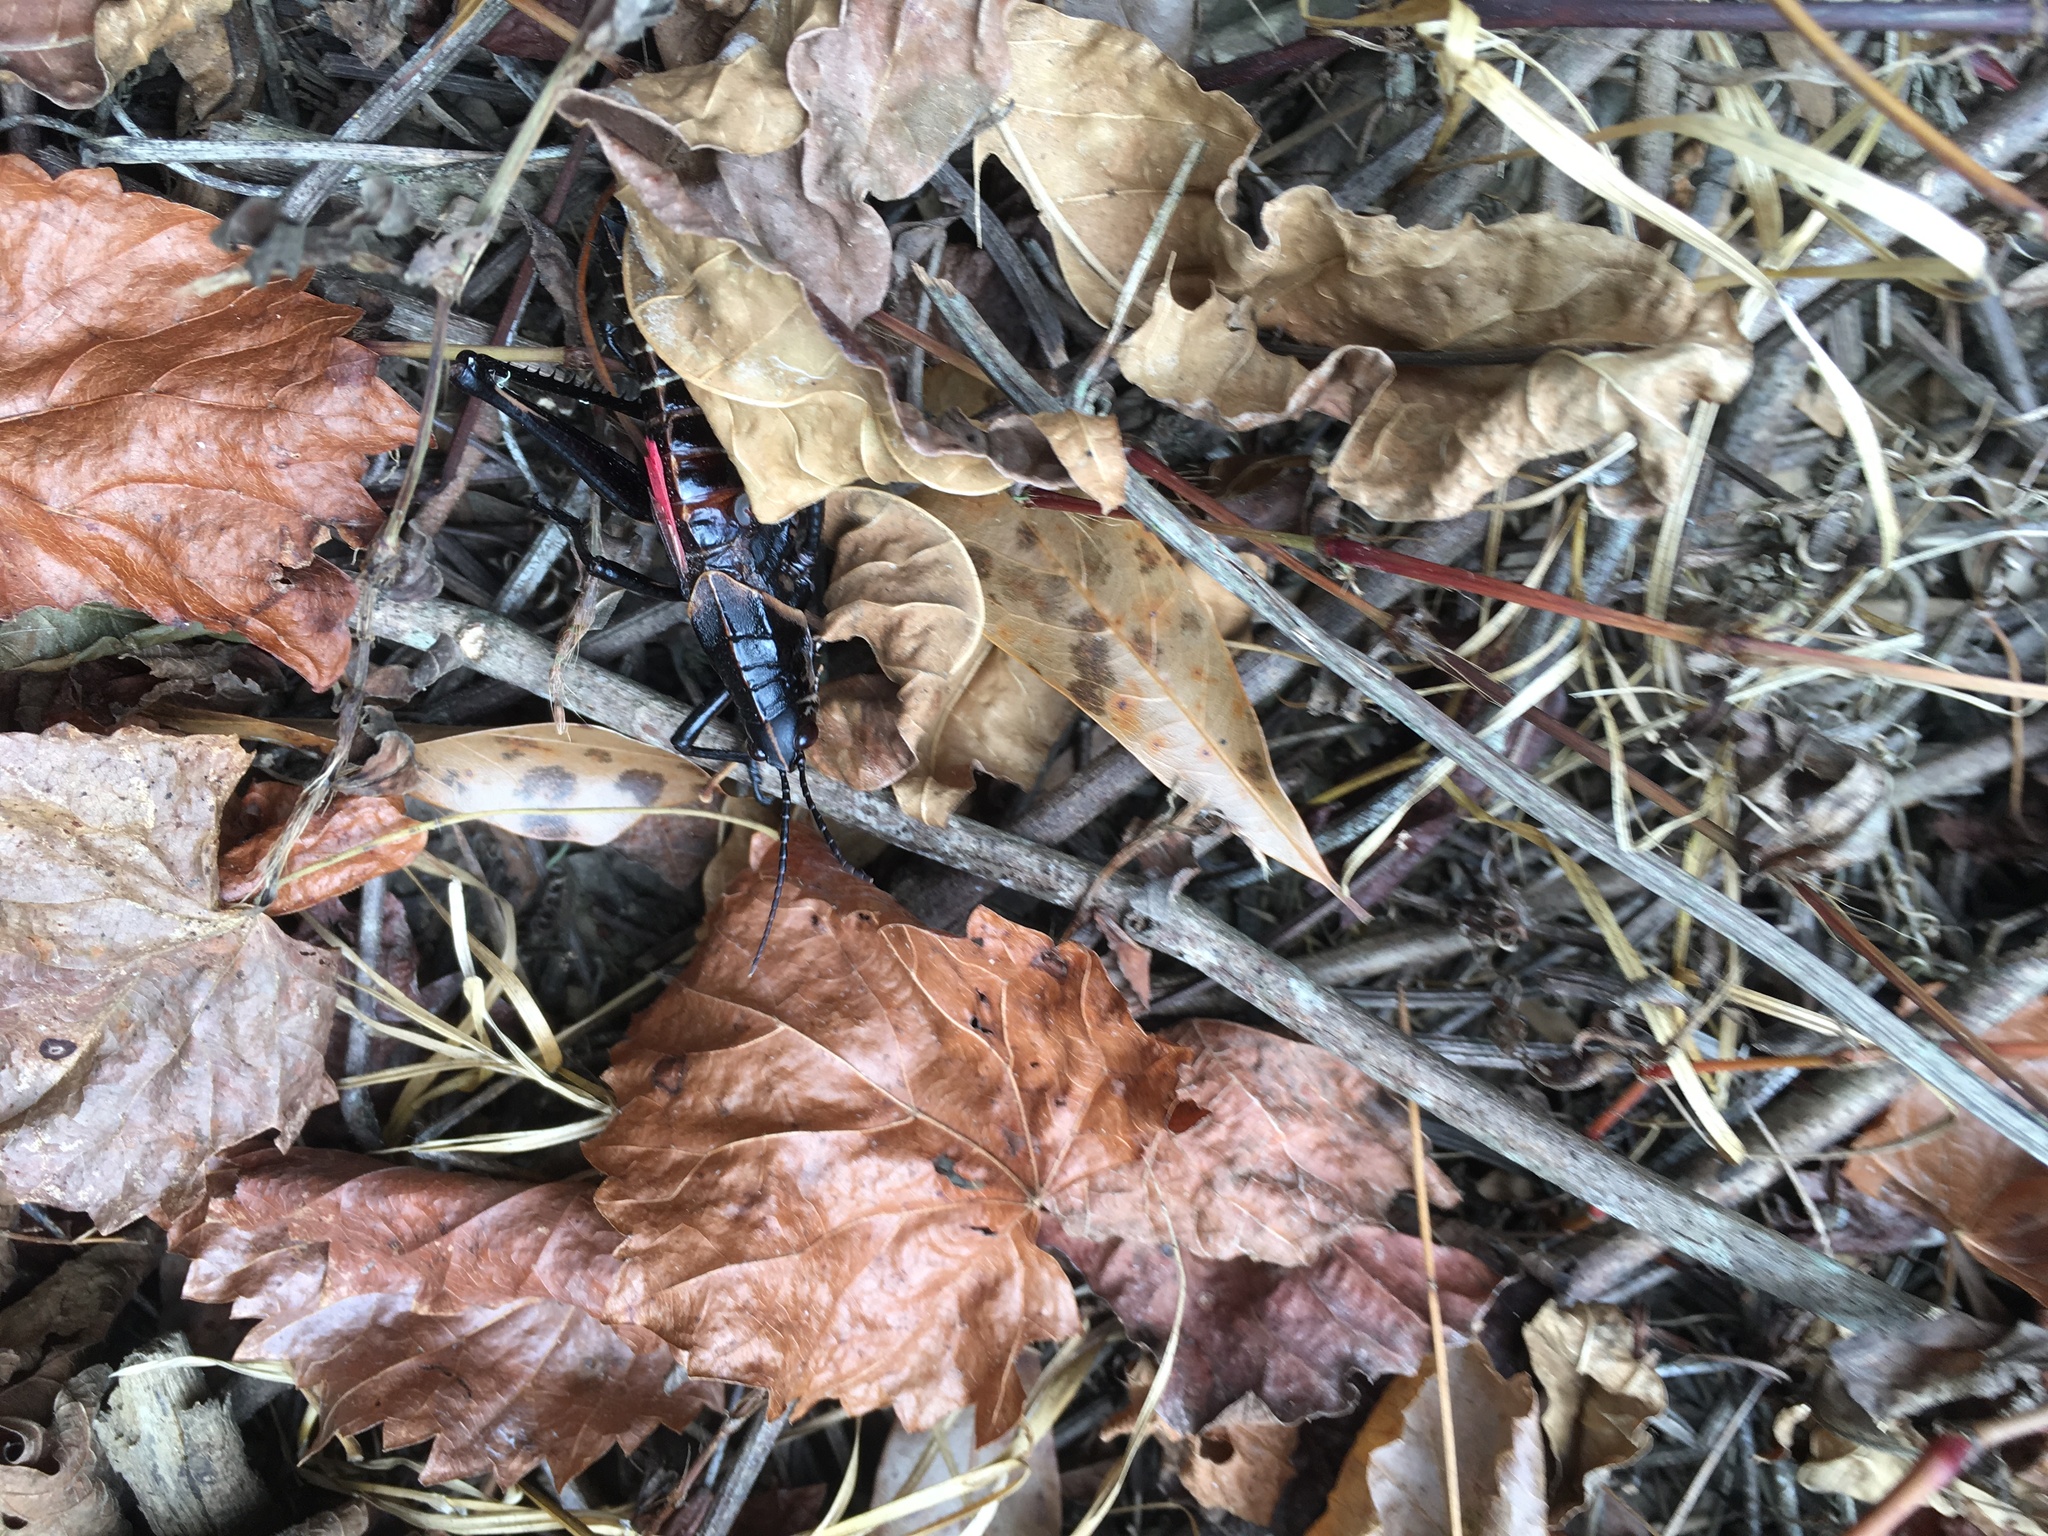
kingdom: Animalia
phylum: Arthropoda
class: Insecta
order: Orthoptera
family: Romaleidae
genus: Romalea
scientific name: Romalea microptera
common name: Eastern lubber grasshopper
